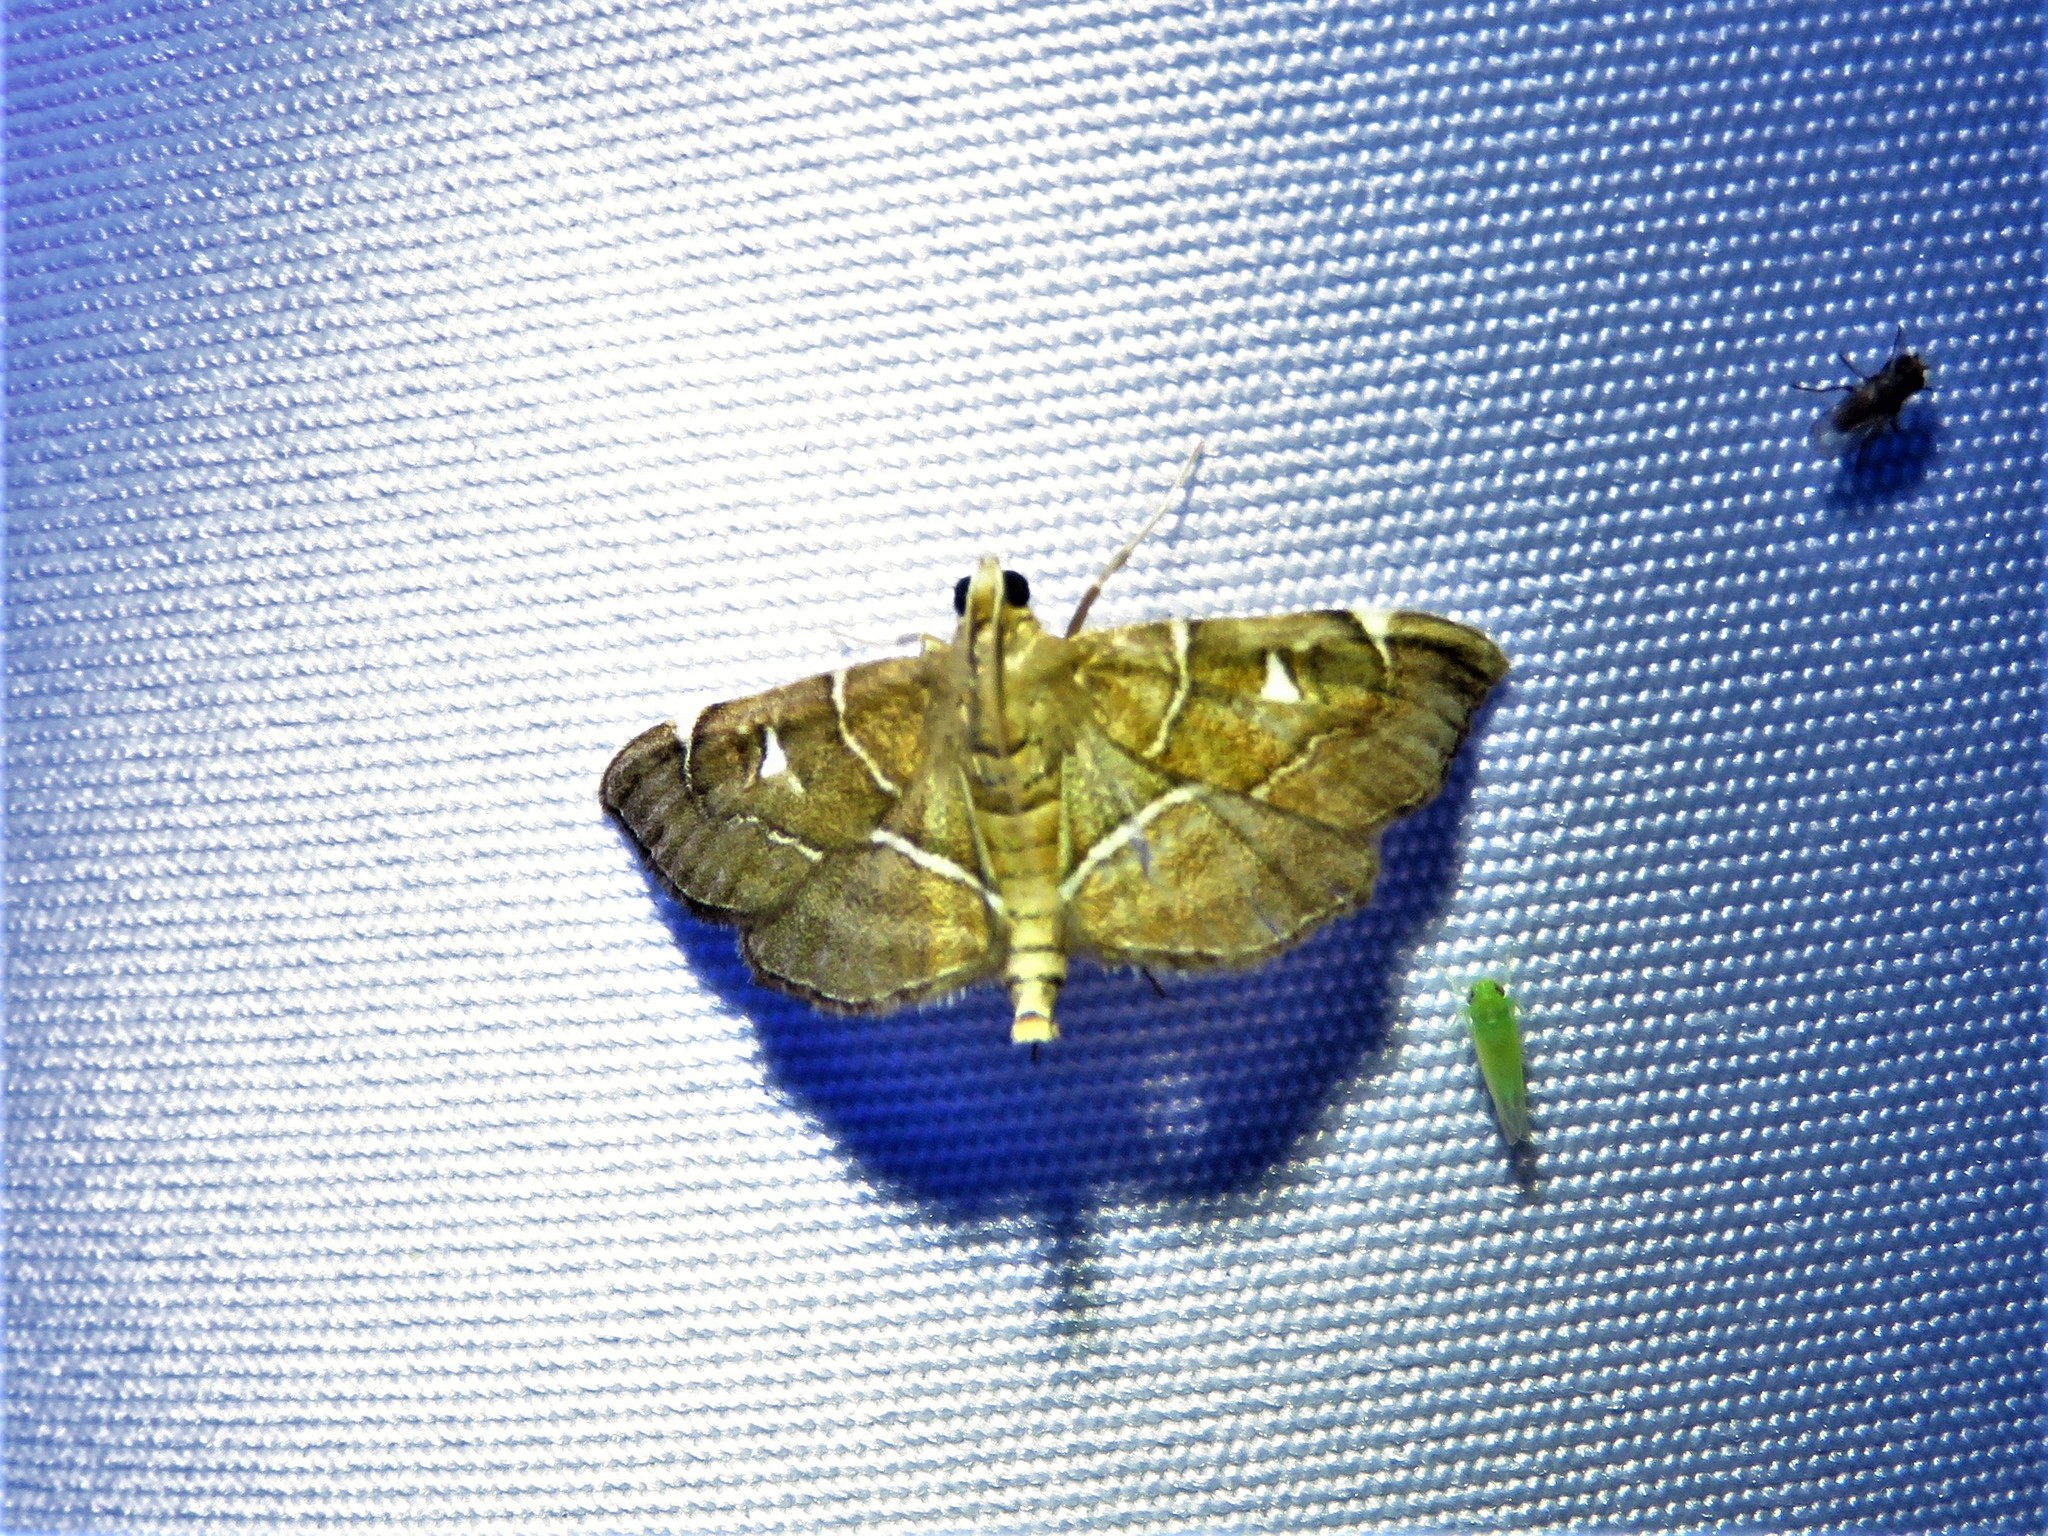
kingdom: Animalia
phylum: Arthropoda
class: Insecta
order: Lepidoptera
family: Crambidae
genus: Lamprosema
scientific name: Lamprosema victoriae
